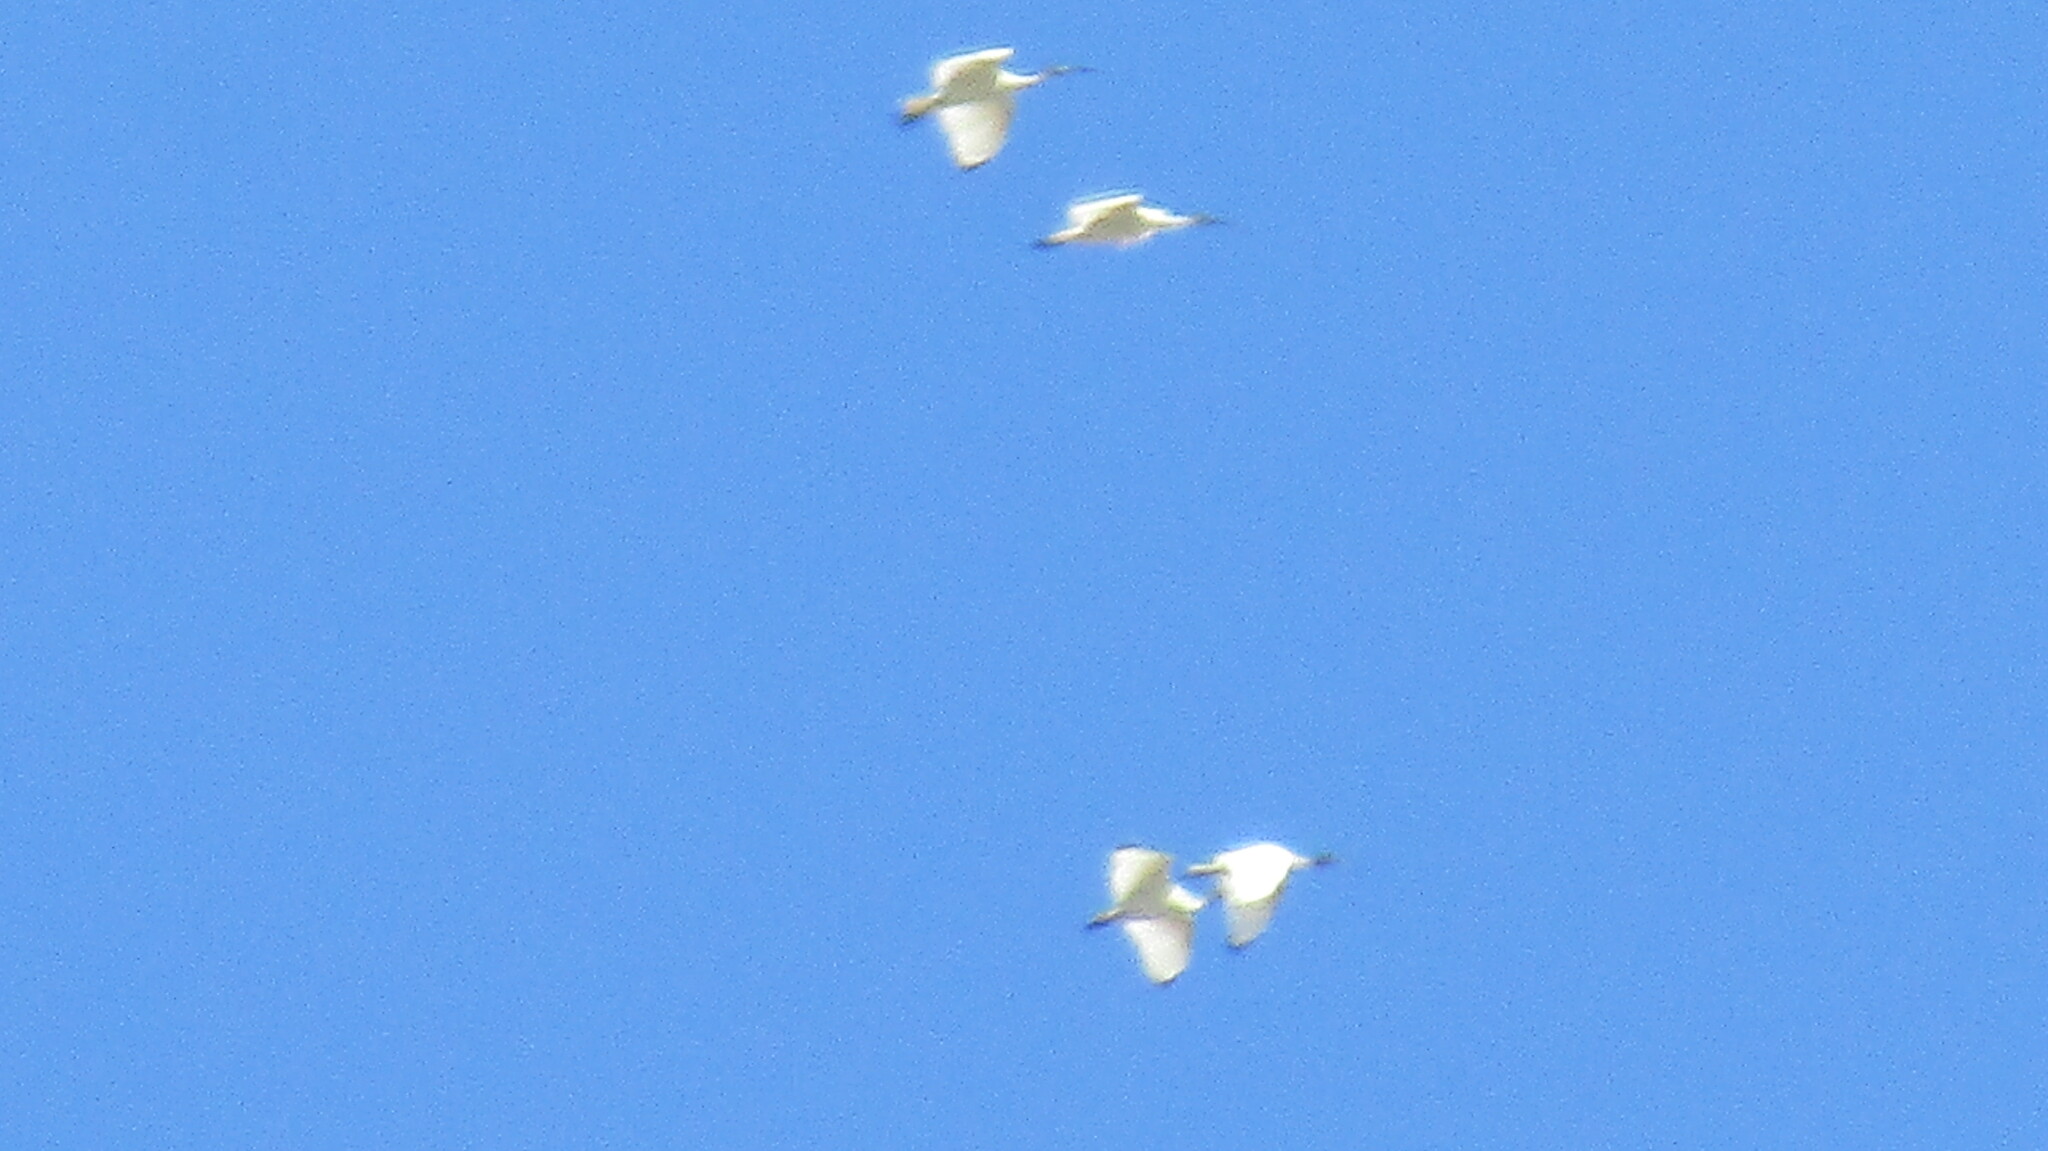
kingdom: Animalia
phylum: Chordata
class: Aves
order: Pelecaniformes
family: Threskiornithidae
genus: Threskiornis
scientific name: Threskiornis molucca
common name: Australian white ibis
